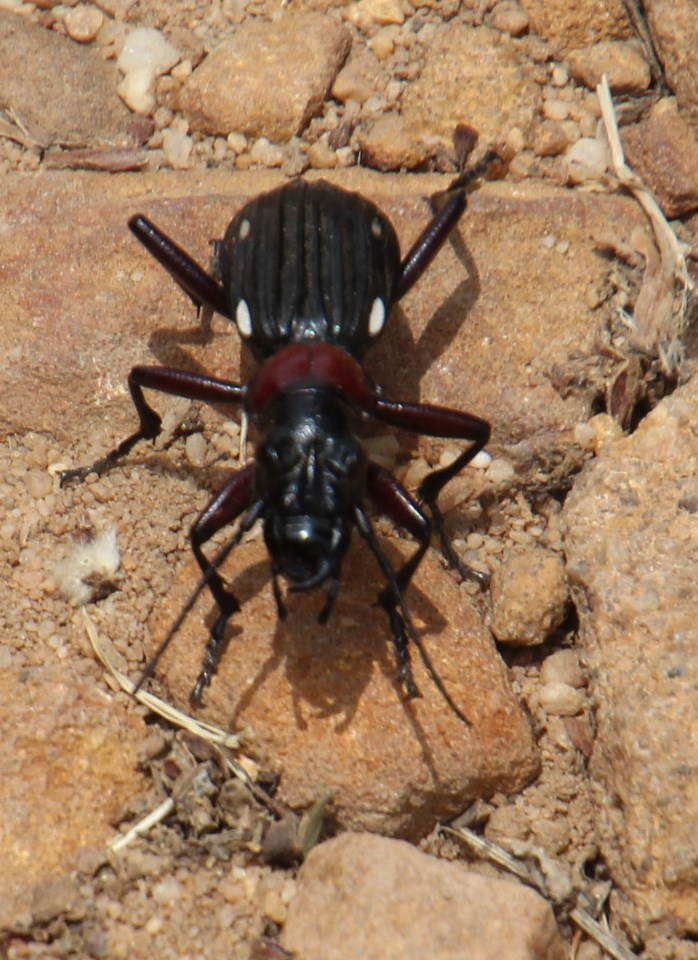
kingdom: Animalia
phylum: Arthropoda
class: Insecta
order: Coleoptera
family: Carabidae
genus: Anthia
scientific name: Anthia decemguttata
